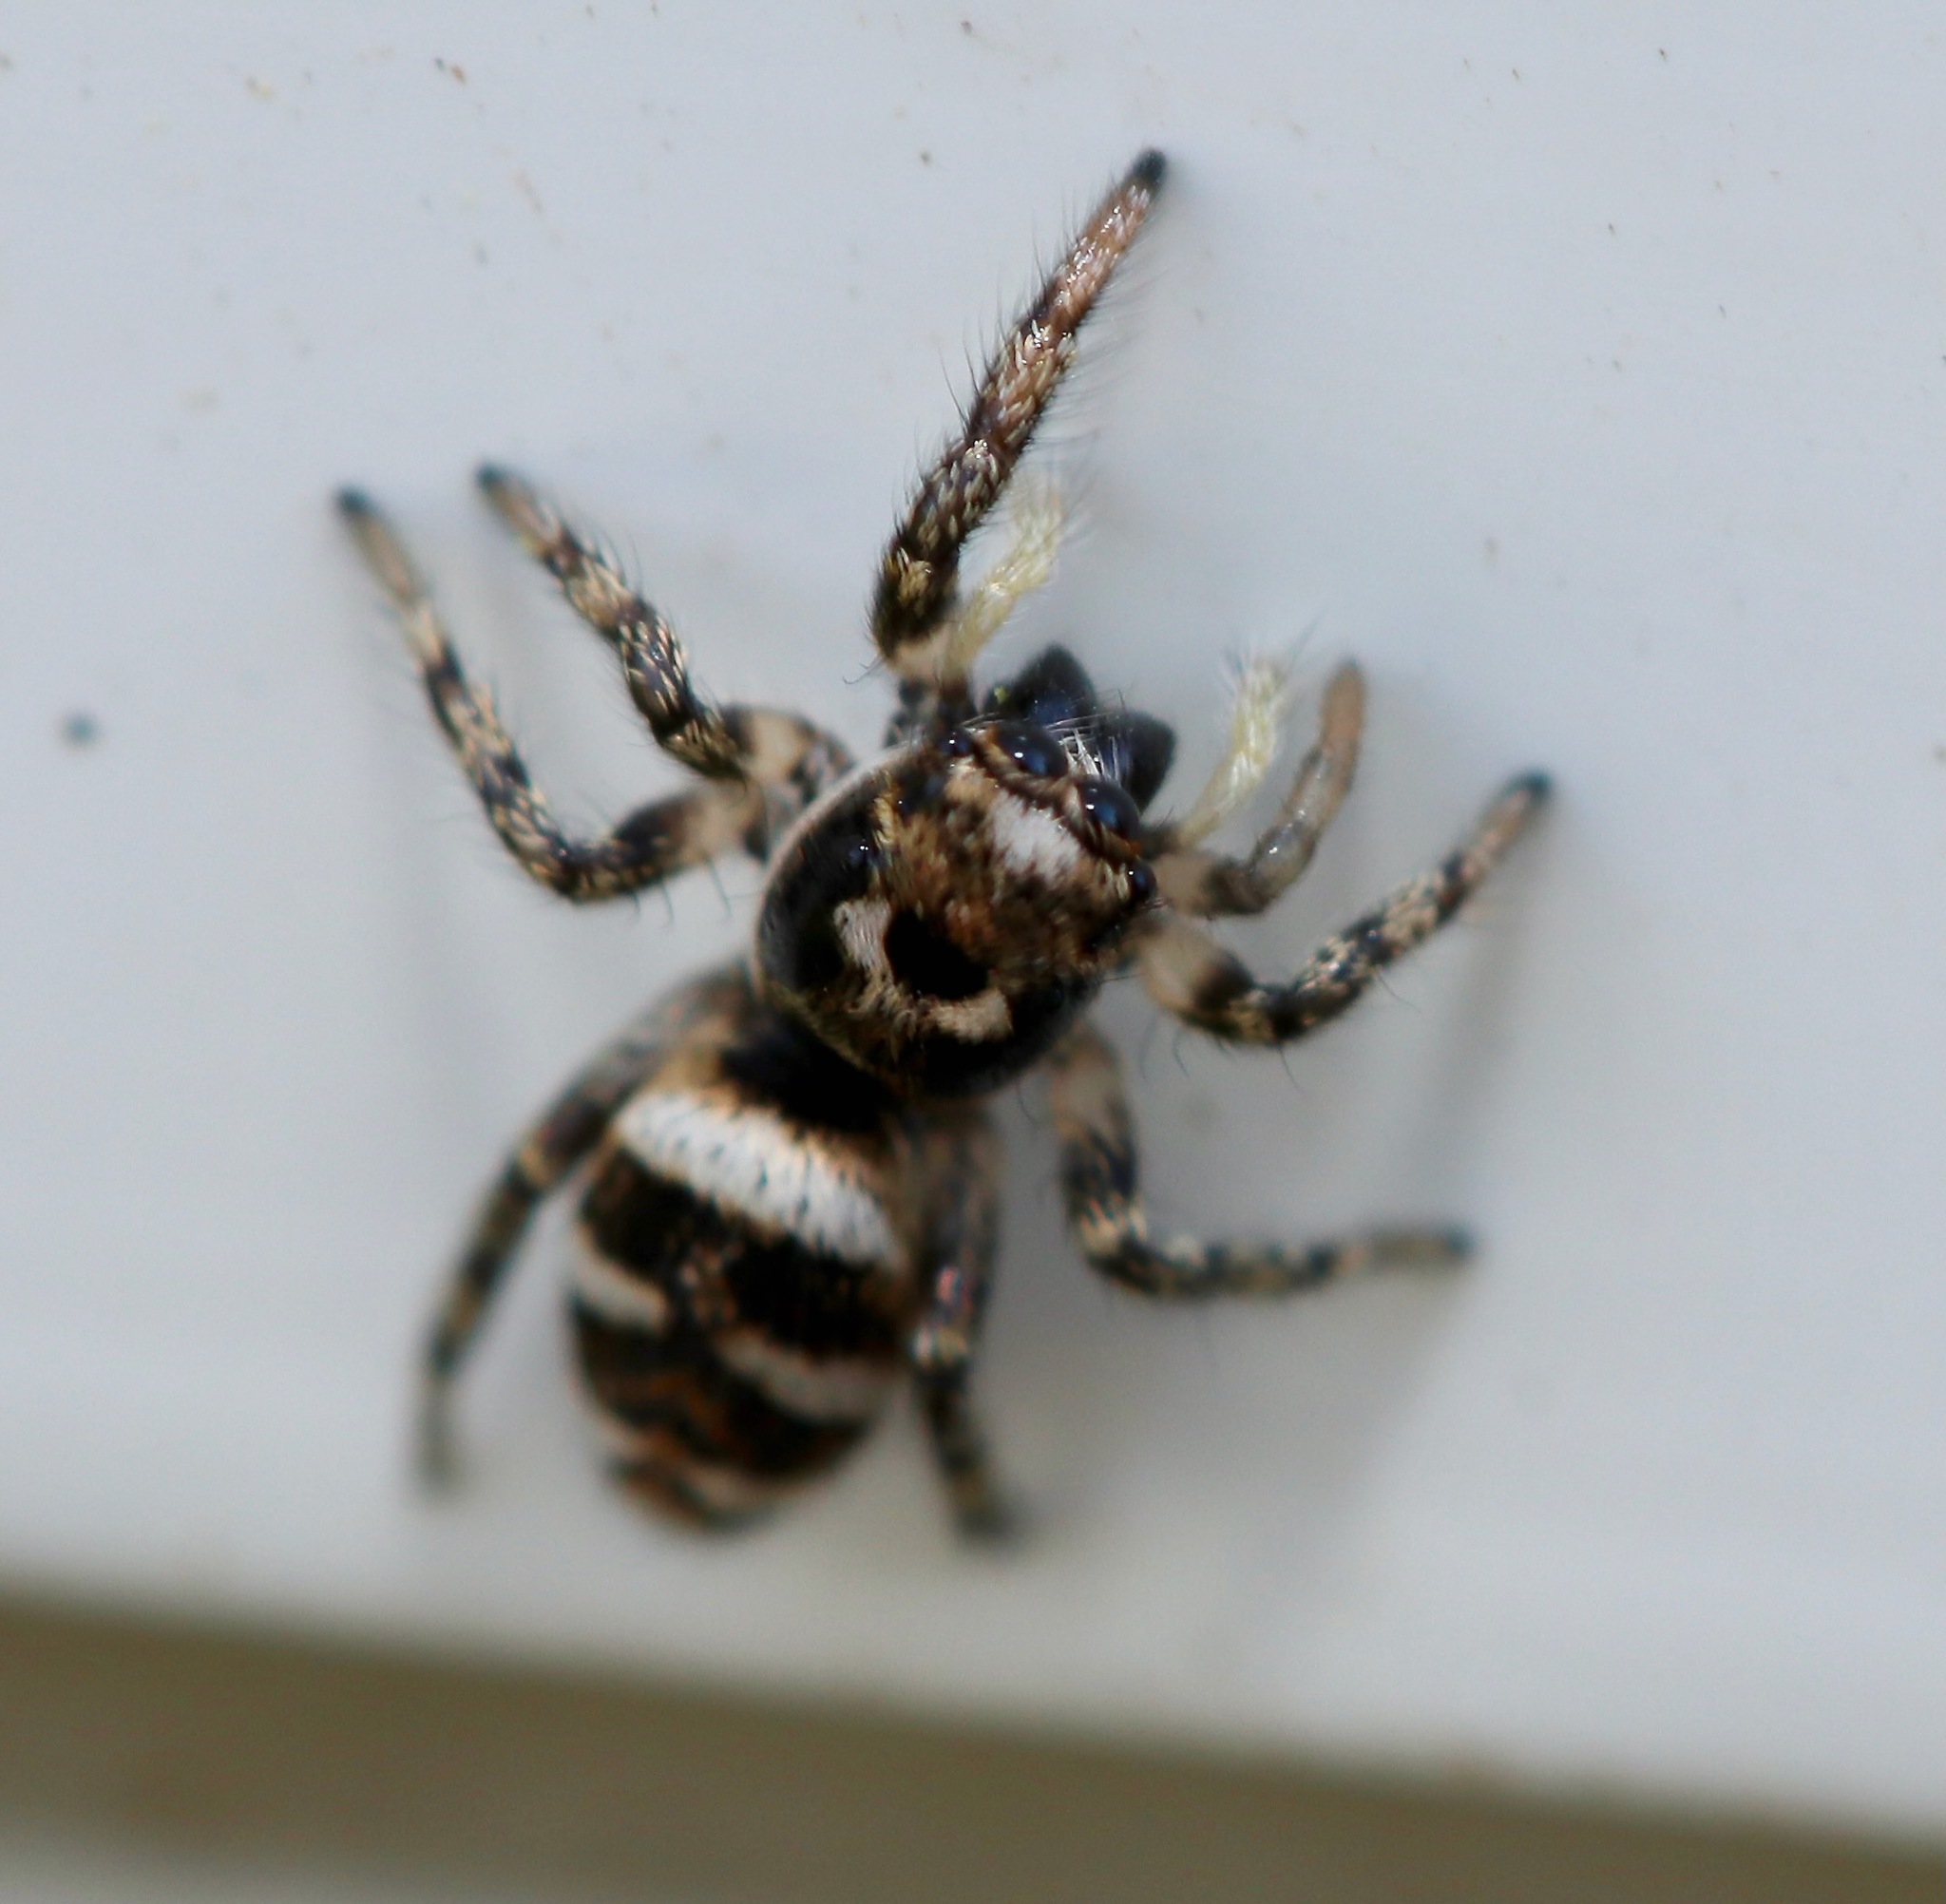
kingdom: Animalia
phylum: Arthropoda
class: Arachnida
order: Araneae
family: Salticidae
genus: Salticus
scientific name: Salticus scenicus
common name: Zebra jumper
